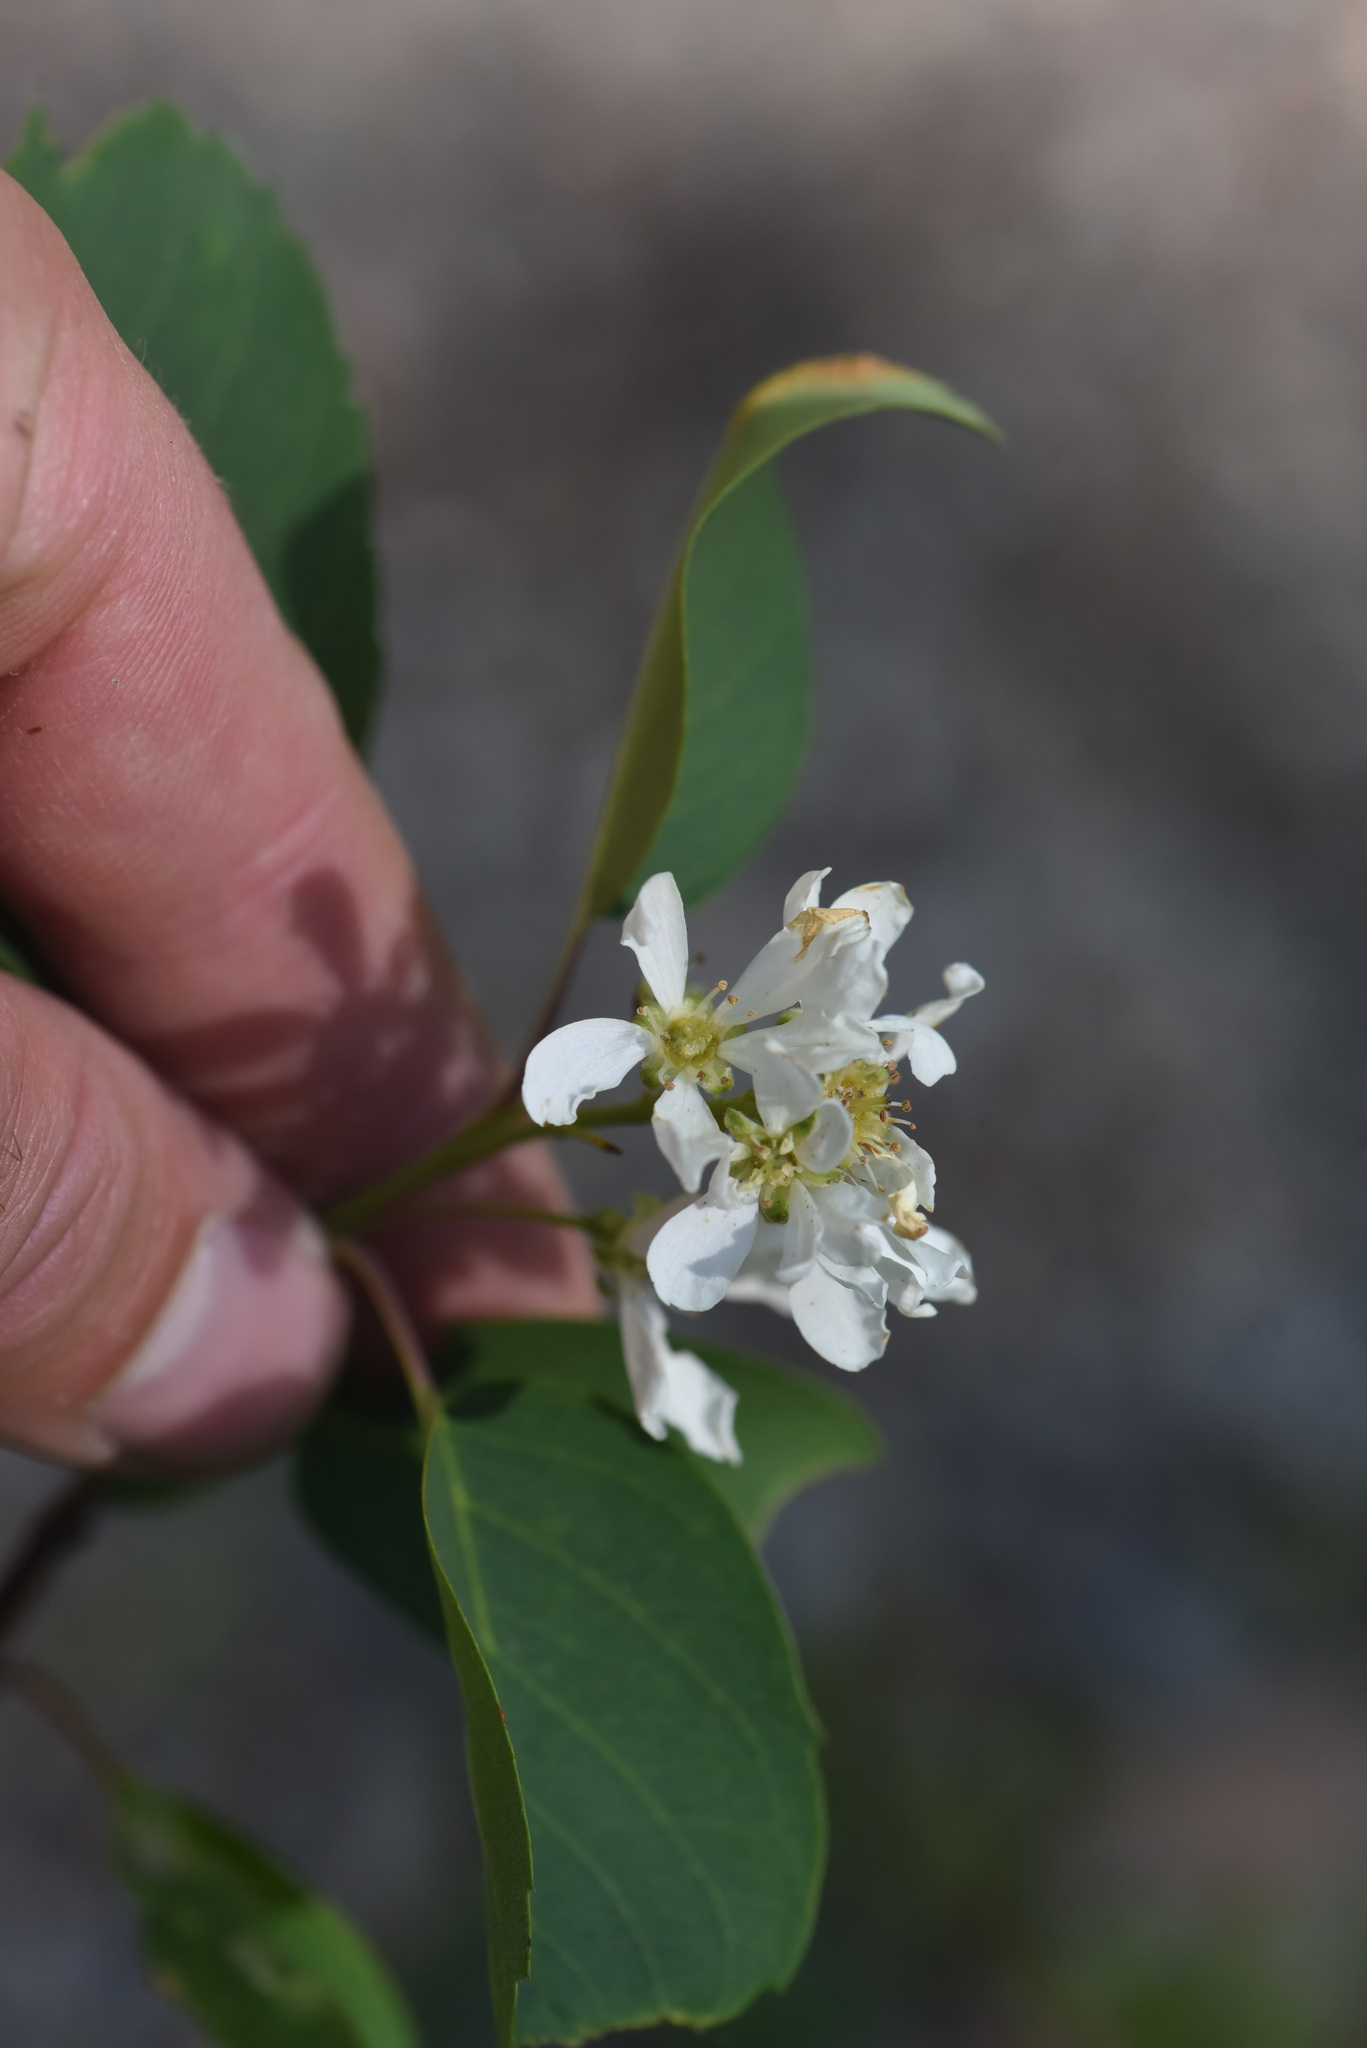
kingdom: Plantae
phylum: Tracheophyta
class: Magnoliopsida
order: Rosales
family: Rosaceae
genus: Amelanchier
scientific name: Amelanchier alnifolia
